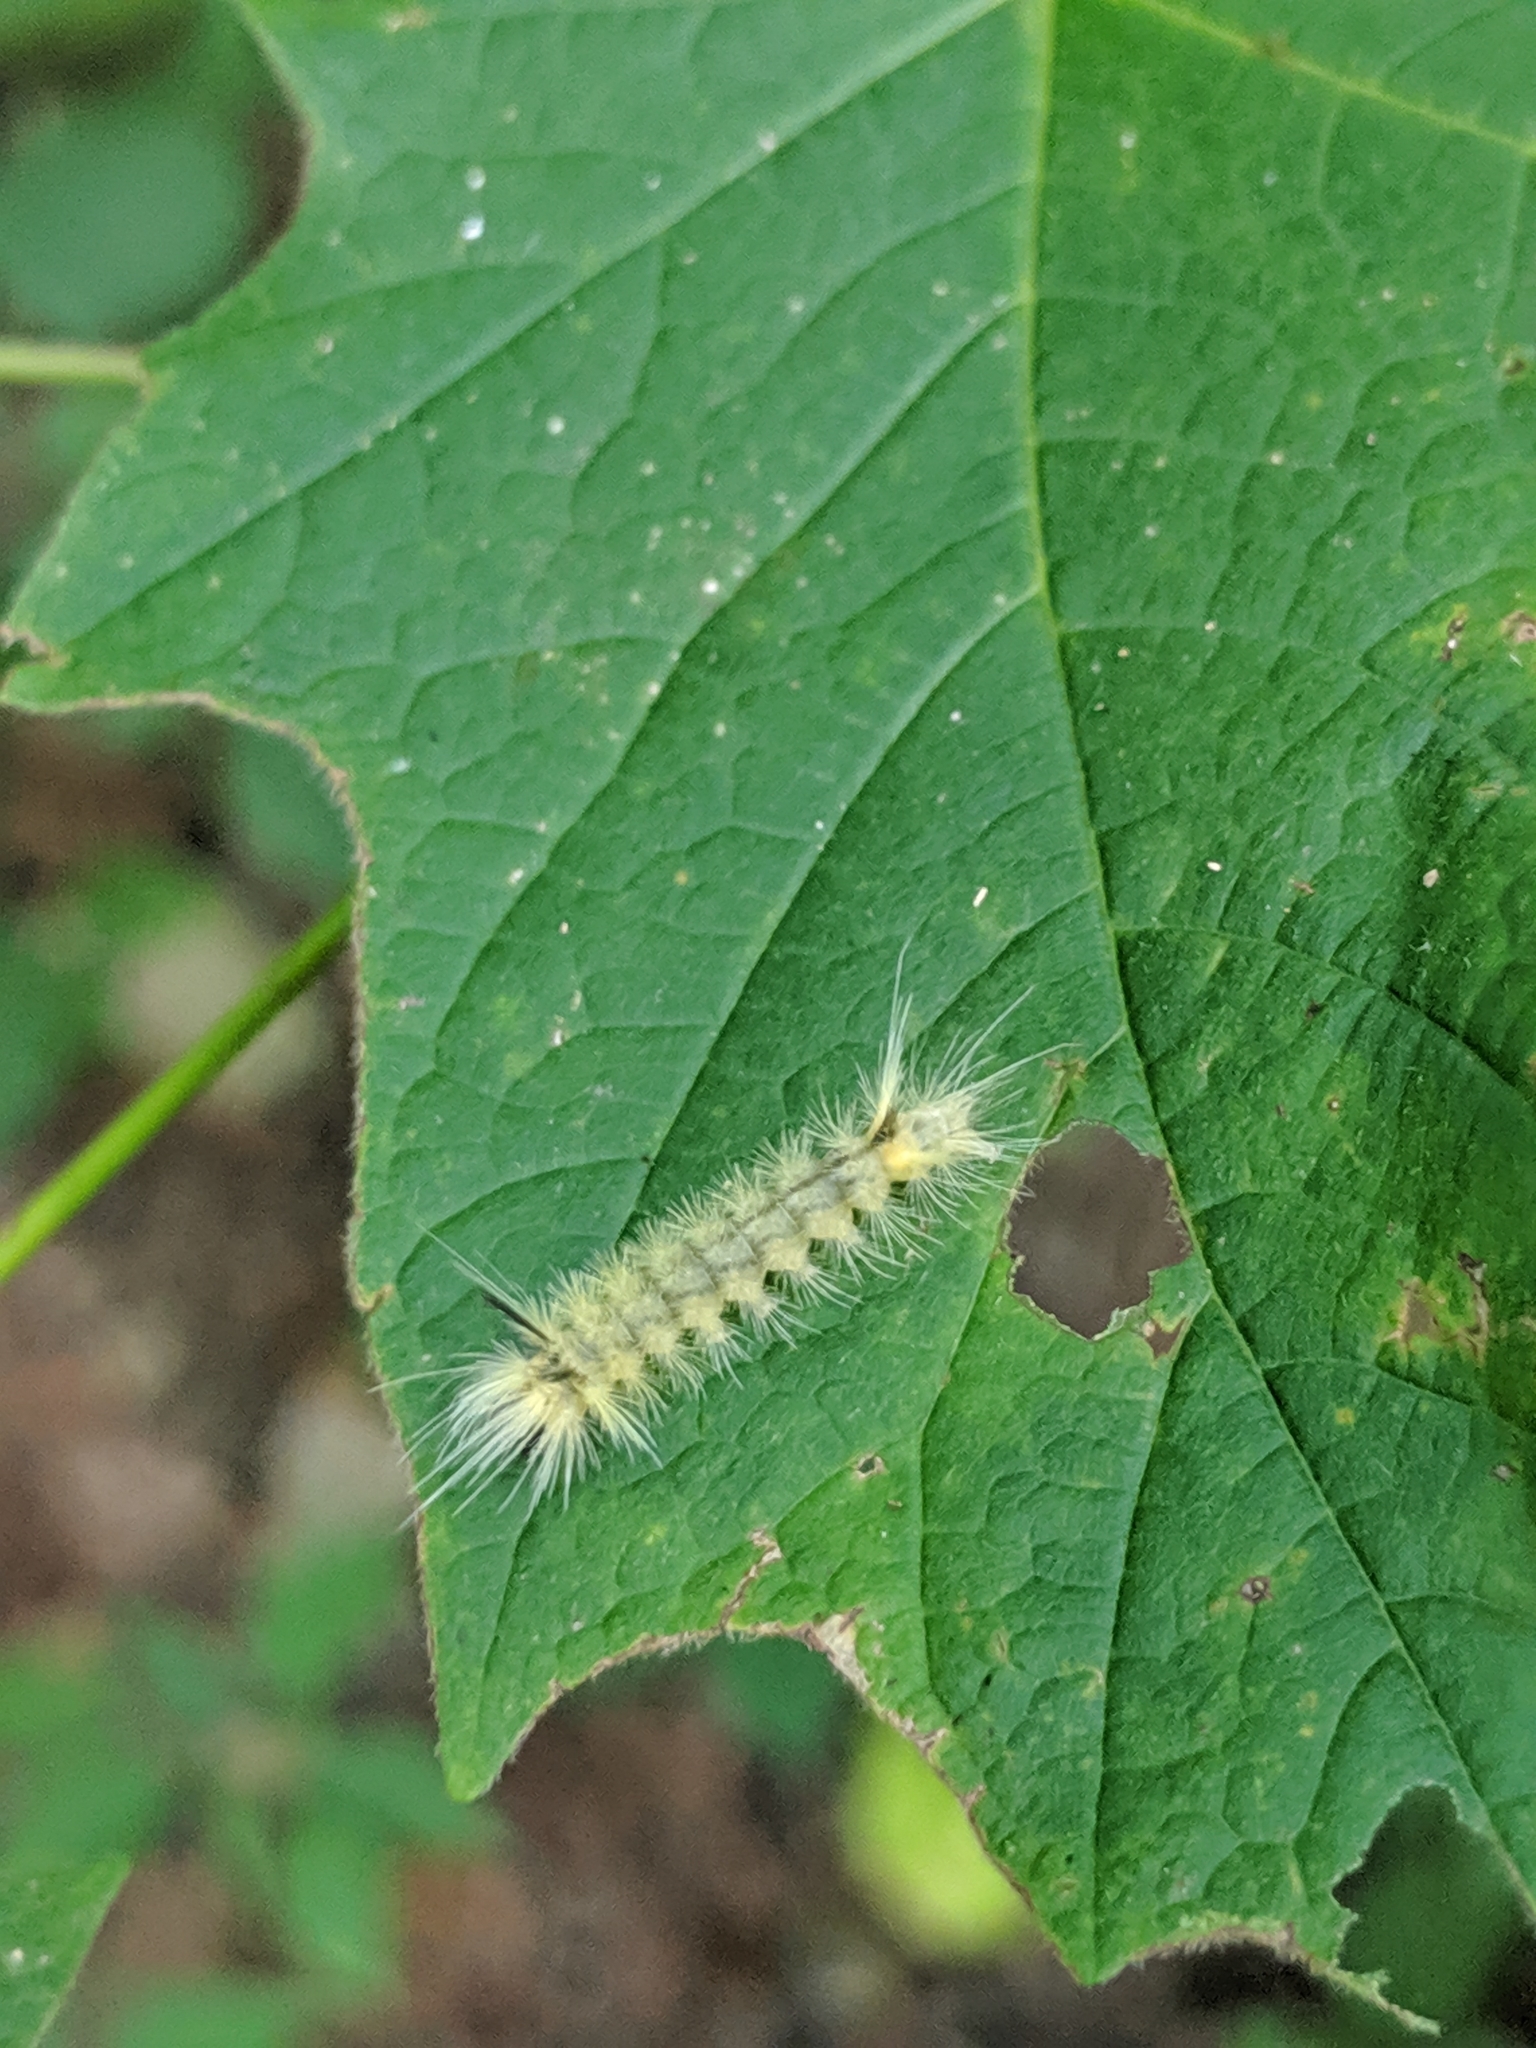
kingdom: Animalia
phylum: Arthropoda
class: Insecta
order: Lepidoptera
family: Erebidae
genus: Halysidota
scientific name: Halysidota tessellaris
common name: Banded tussock moth
